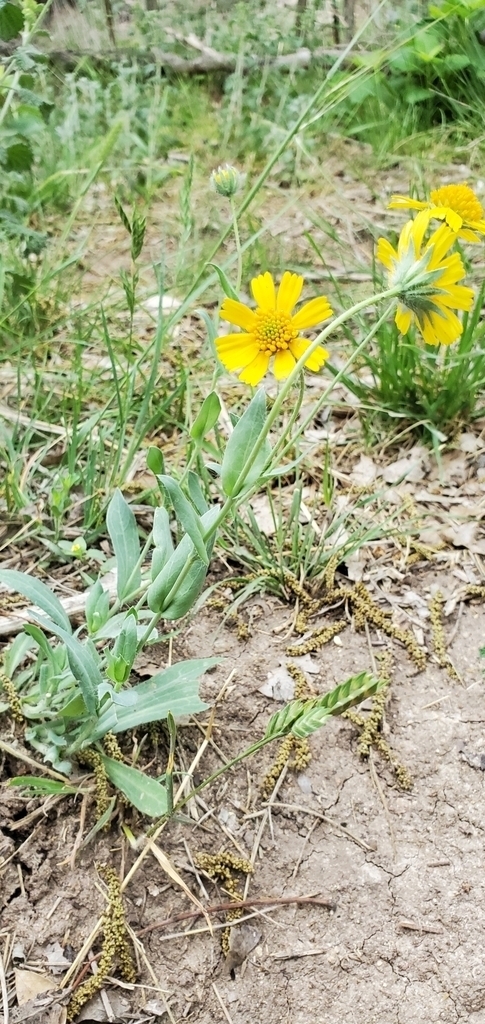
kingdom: Plantae
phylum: Tracheophyta
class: Magnoliopsida
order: Asterales
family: Asteraceae
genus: Amblyolepis
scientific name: Amblyolepis setigera
